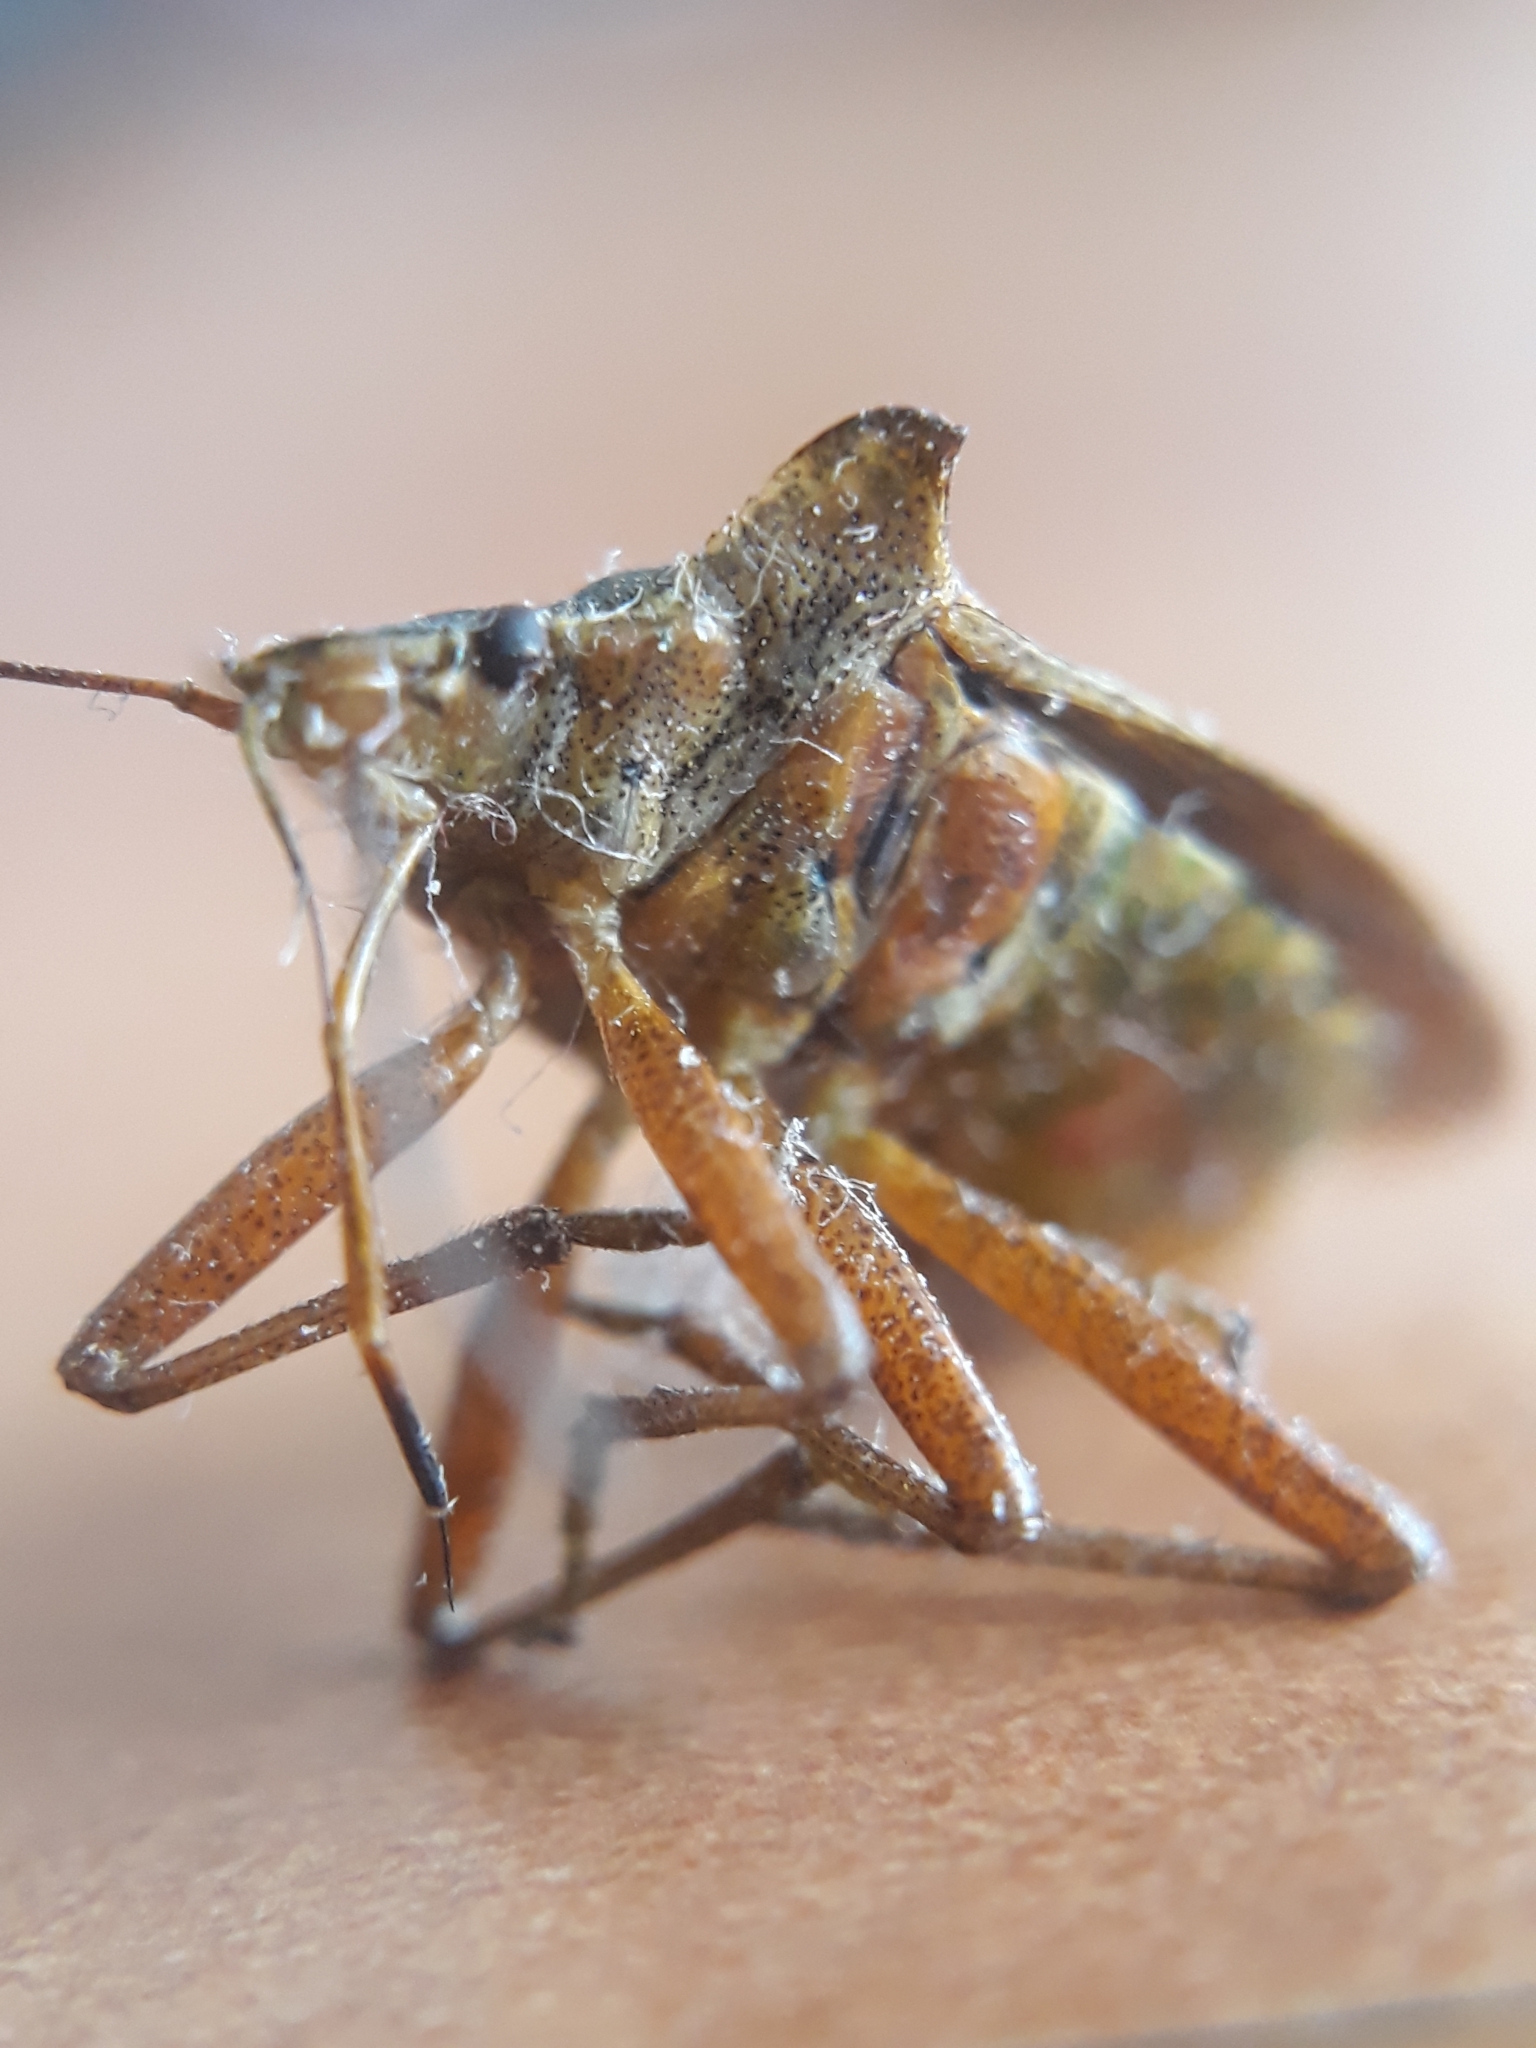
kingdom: Animalia
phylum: Arthropoda
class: Insecta
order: Hemiptera
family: Pentatomidae
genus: Pentatoma
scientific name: Pentatoma rufipes
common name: Forest bug
